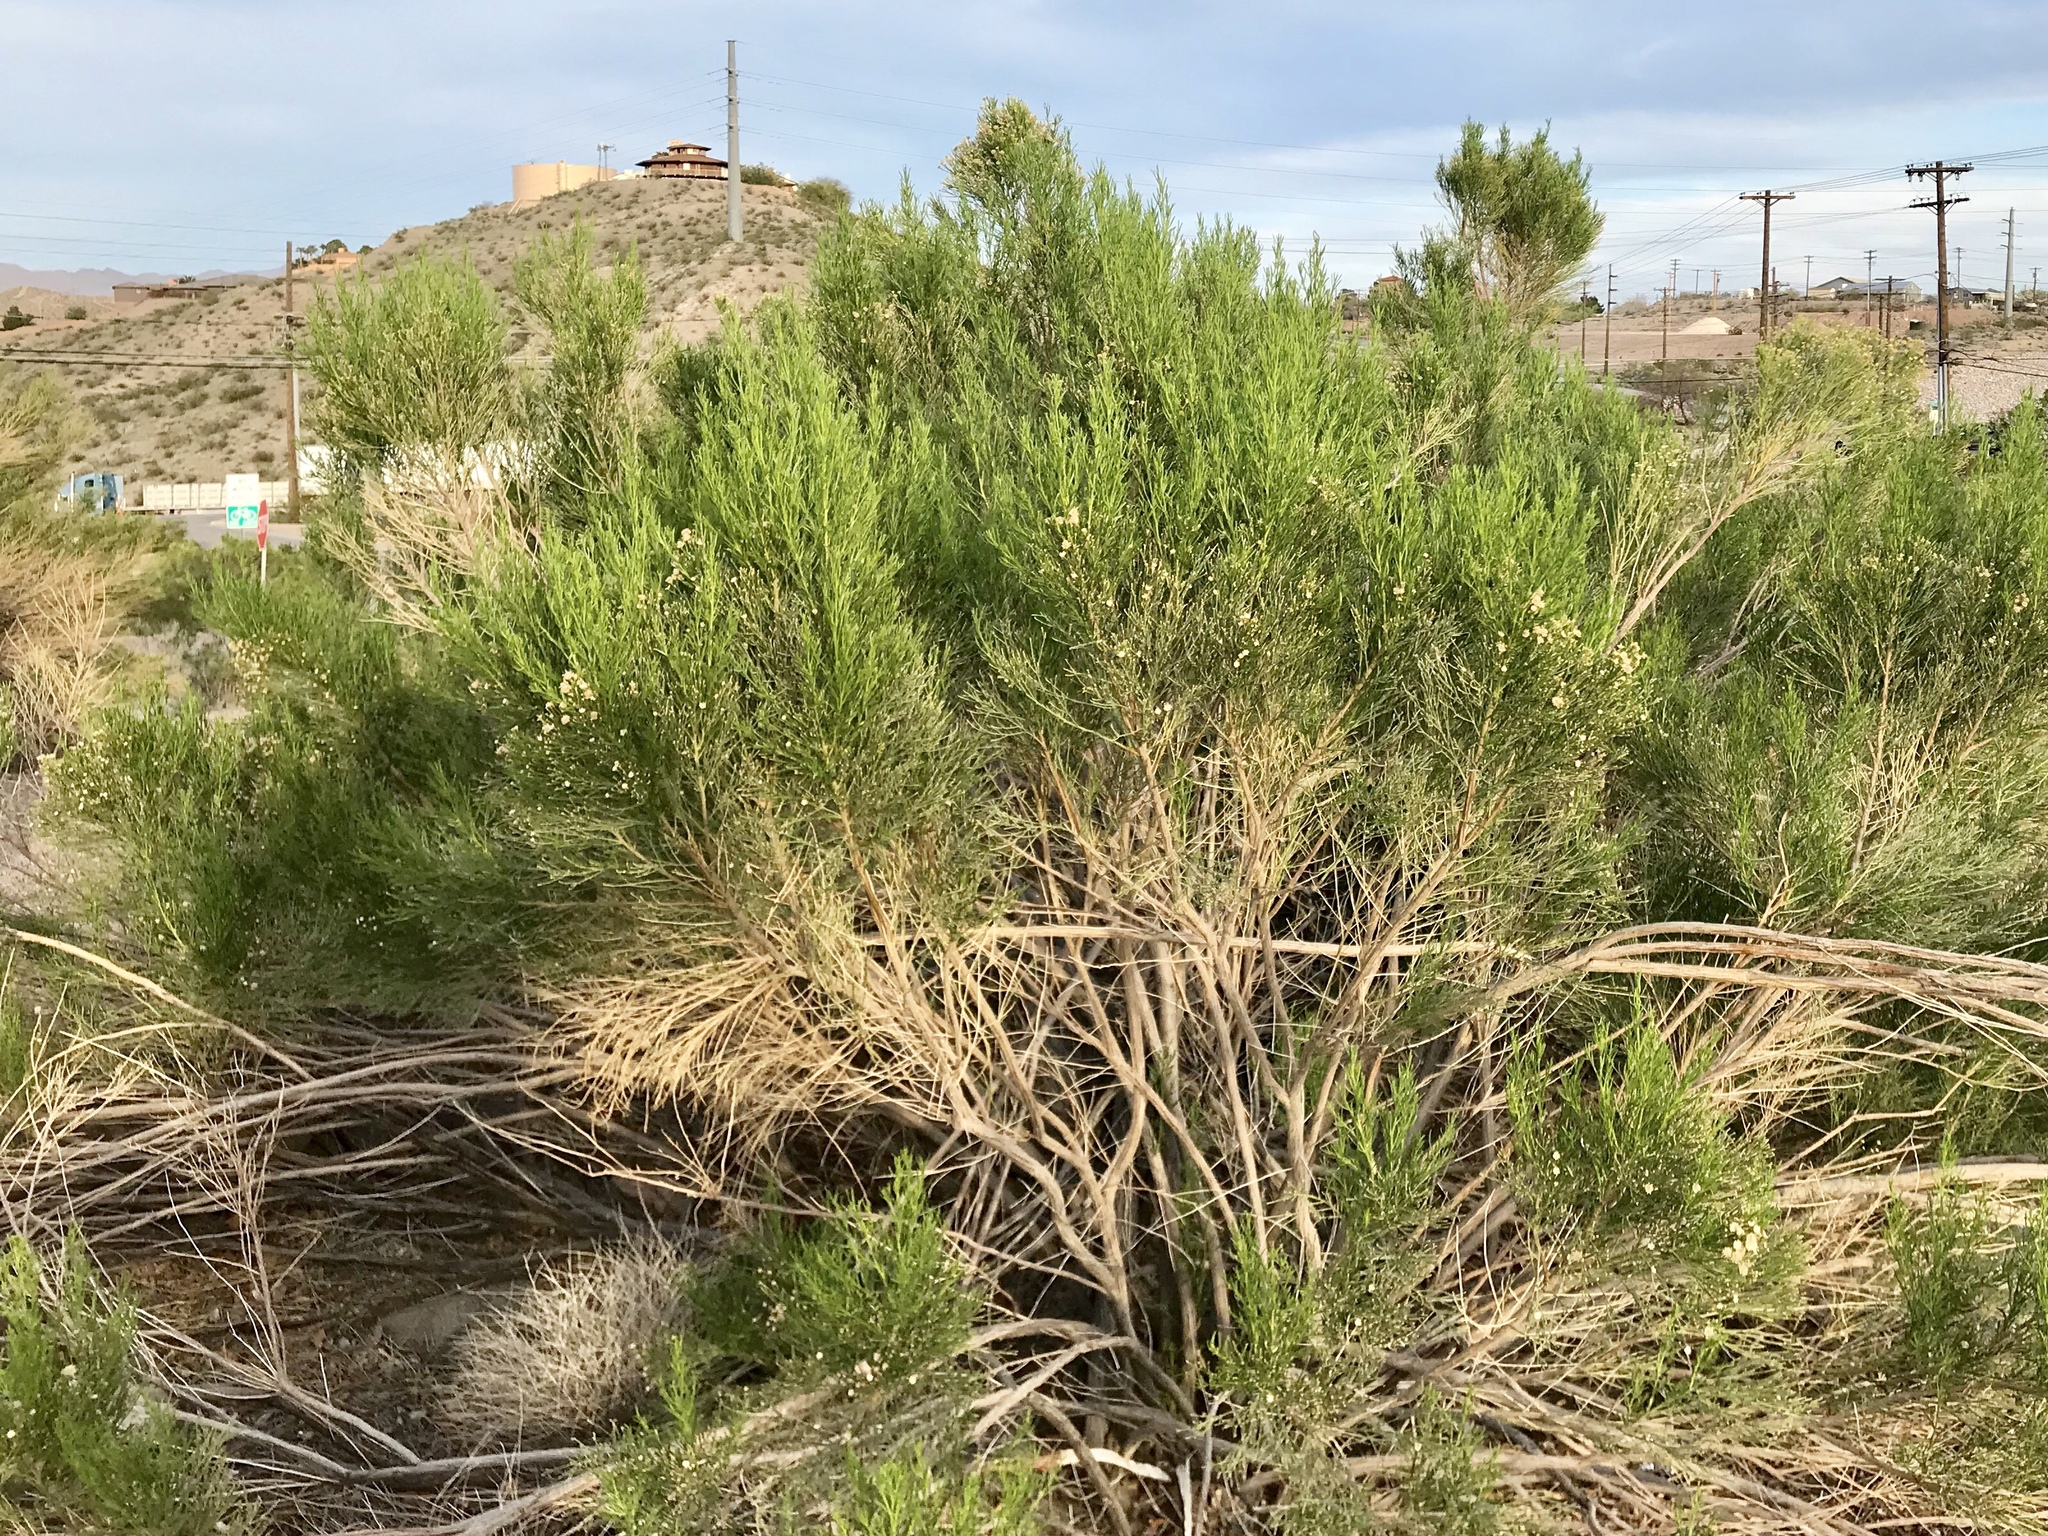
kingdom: Plantae
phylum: Tracheophyta
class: Magnoliopsida
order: Asterales
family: Asteraceae
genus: Baccharis
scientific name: Baccharis sarothroides
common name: Desert-broom
